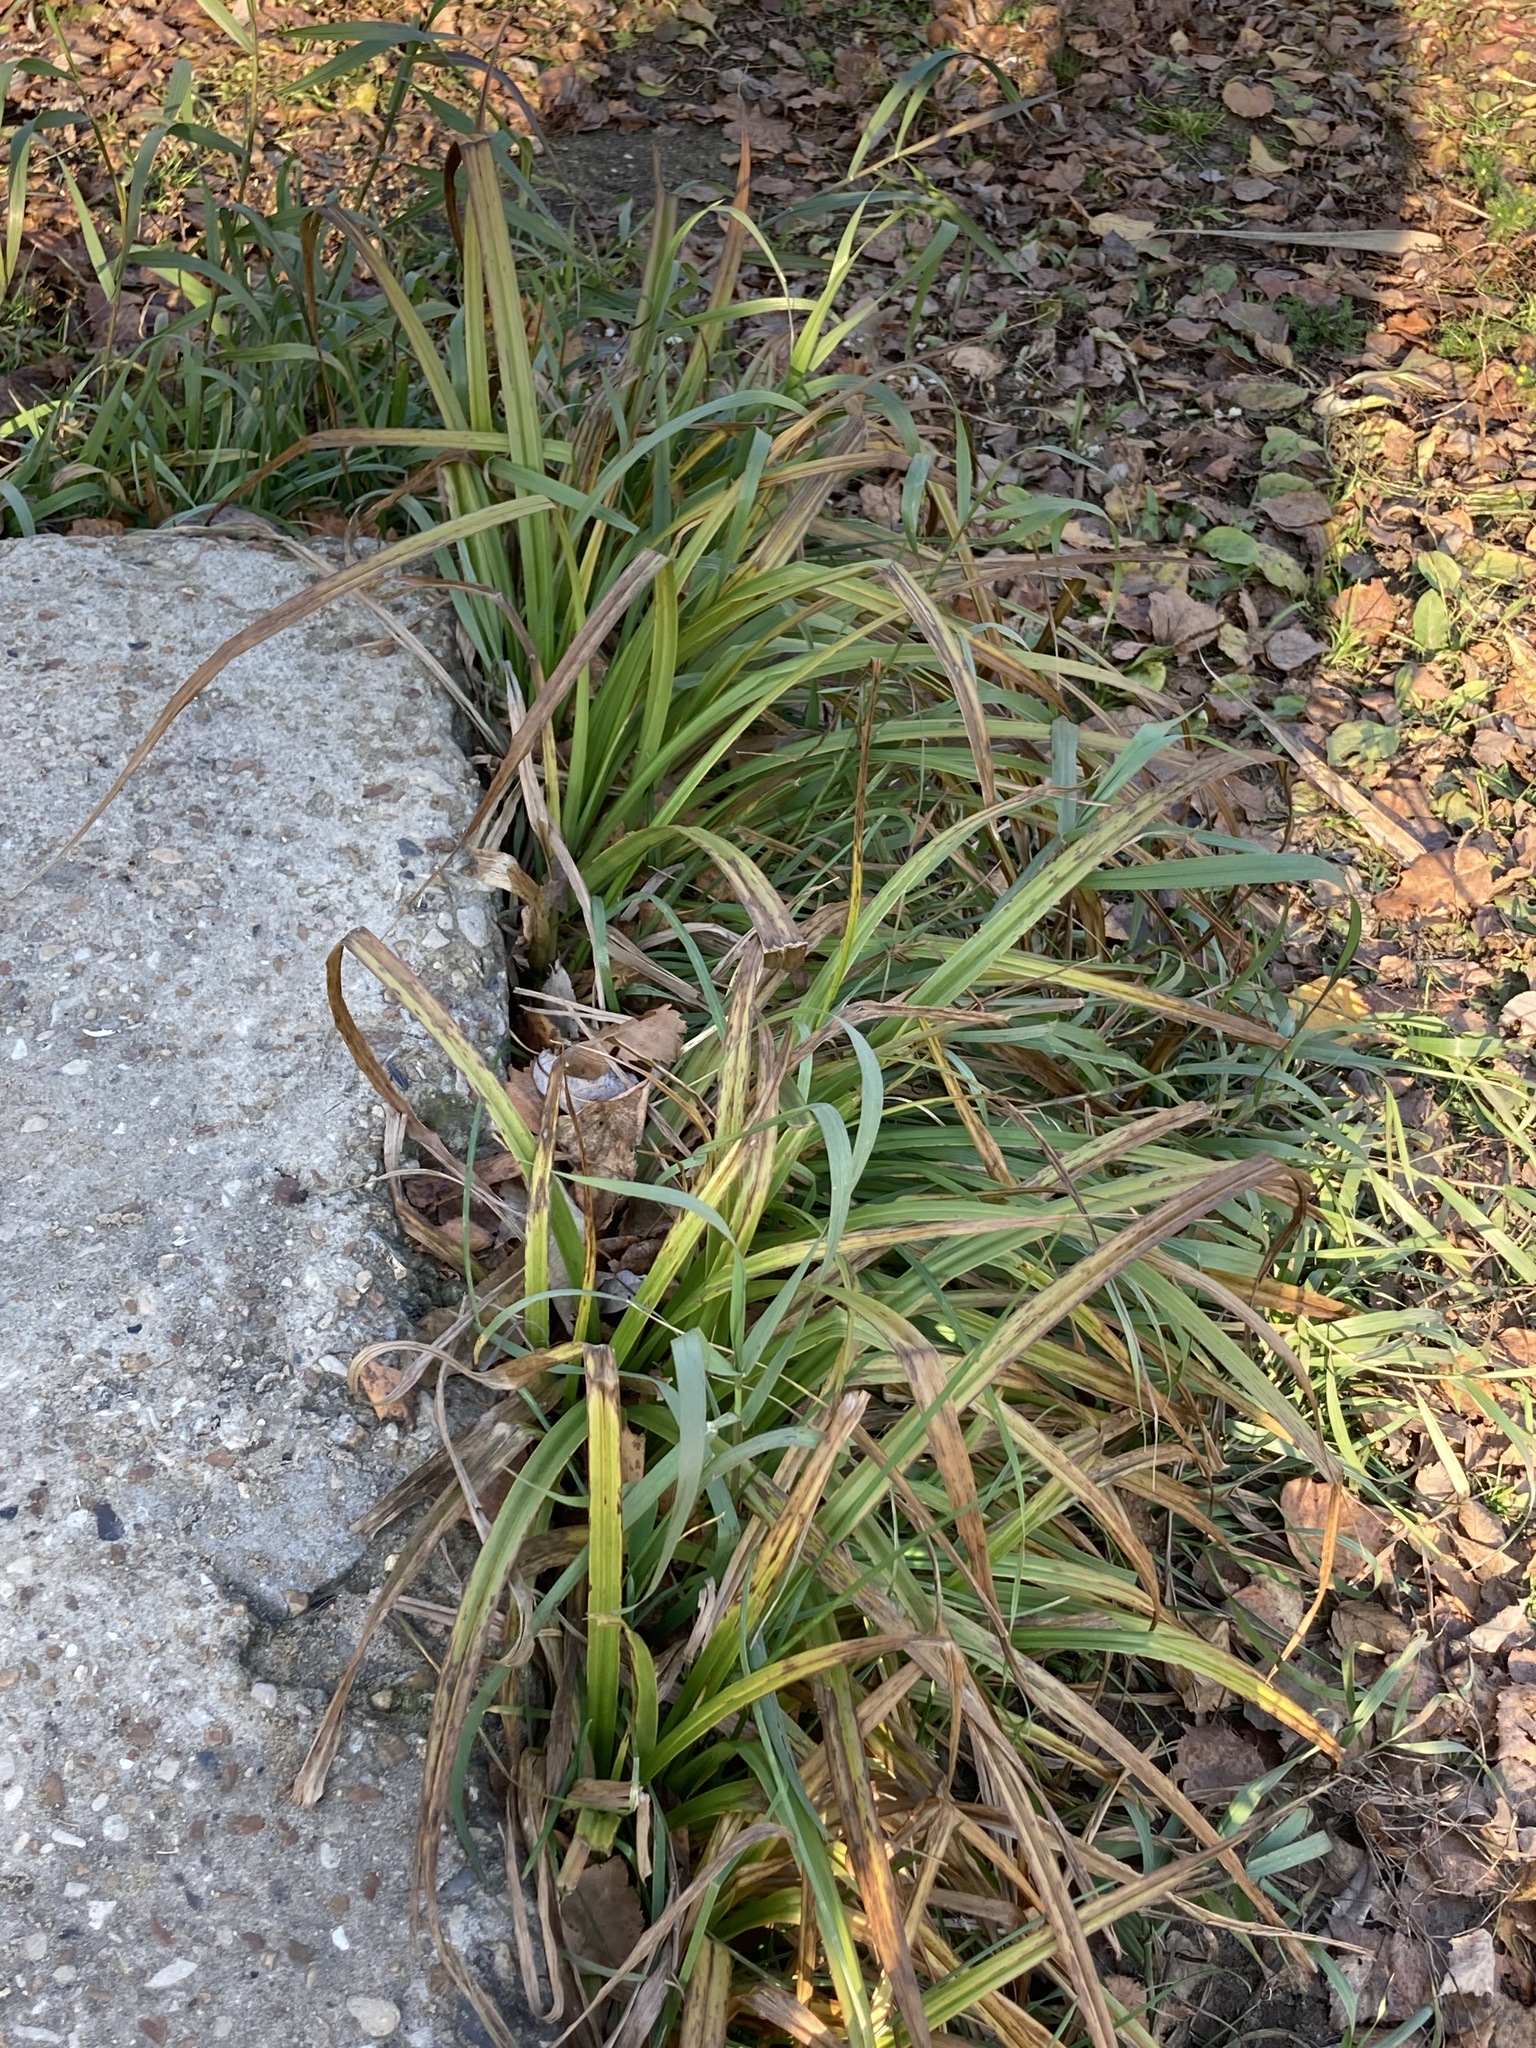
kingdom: Plantae
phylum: Tracheophyta
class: Liliopsida
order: Poales
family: Cyperaceae
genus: Carex
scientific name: Carex hirta
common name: Hairy sedge
